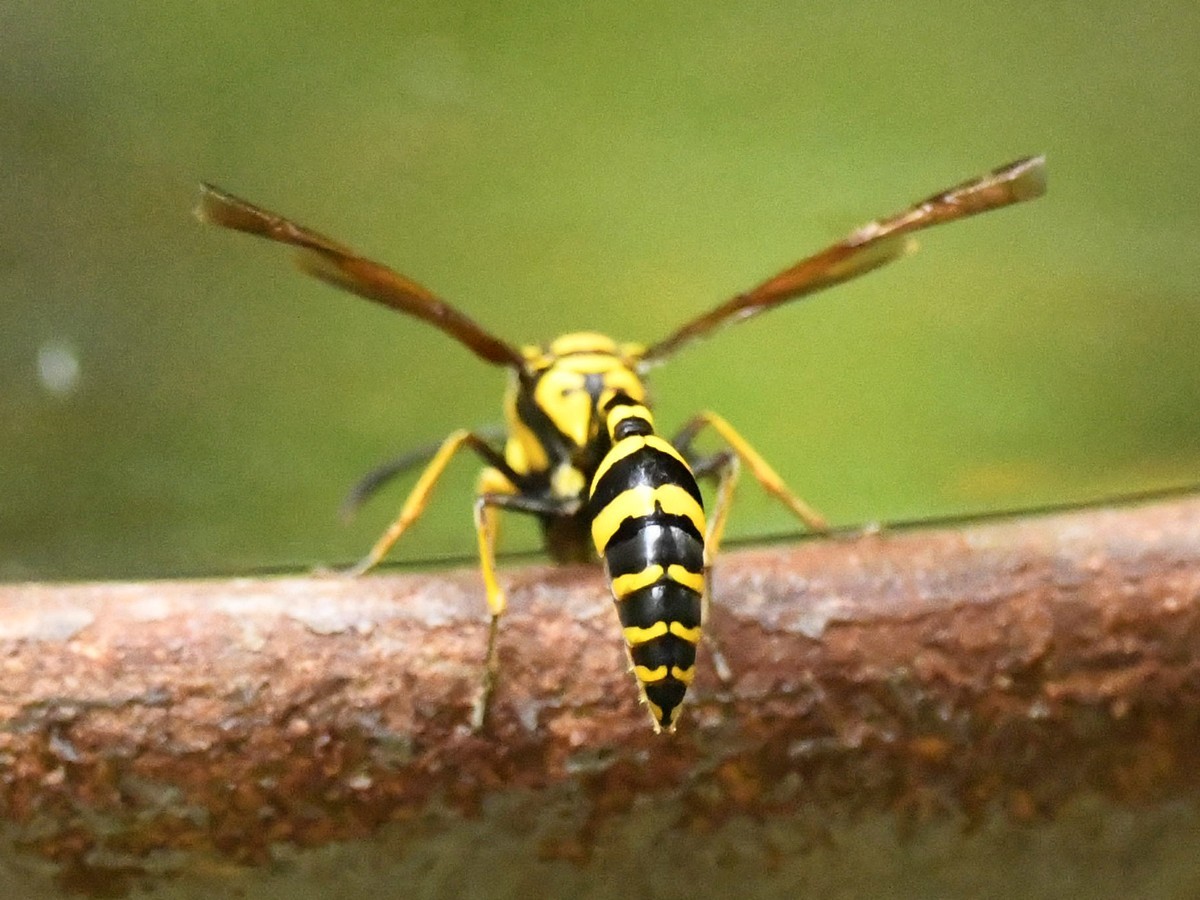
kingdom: Animalia
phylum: Arthropoda
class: Insecta
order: Hymenoptera
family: Eumenidae
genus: Phimenes
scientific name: Phimenes flavopictus
